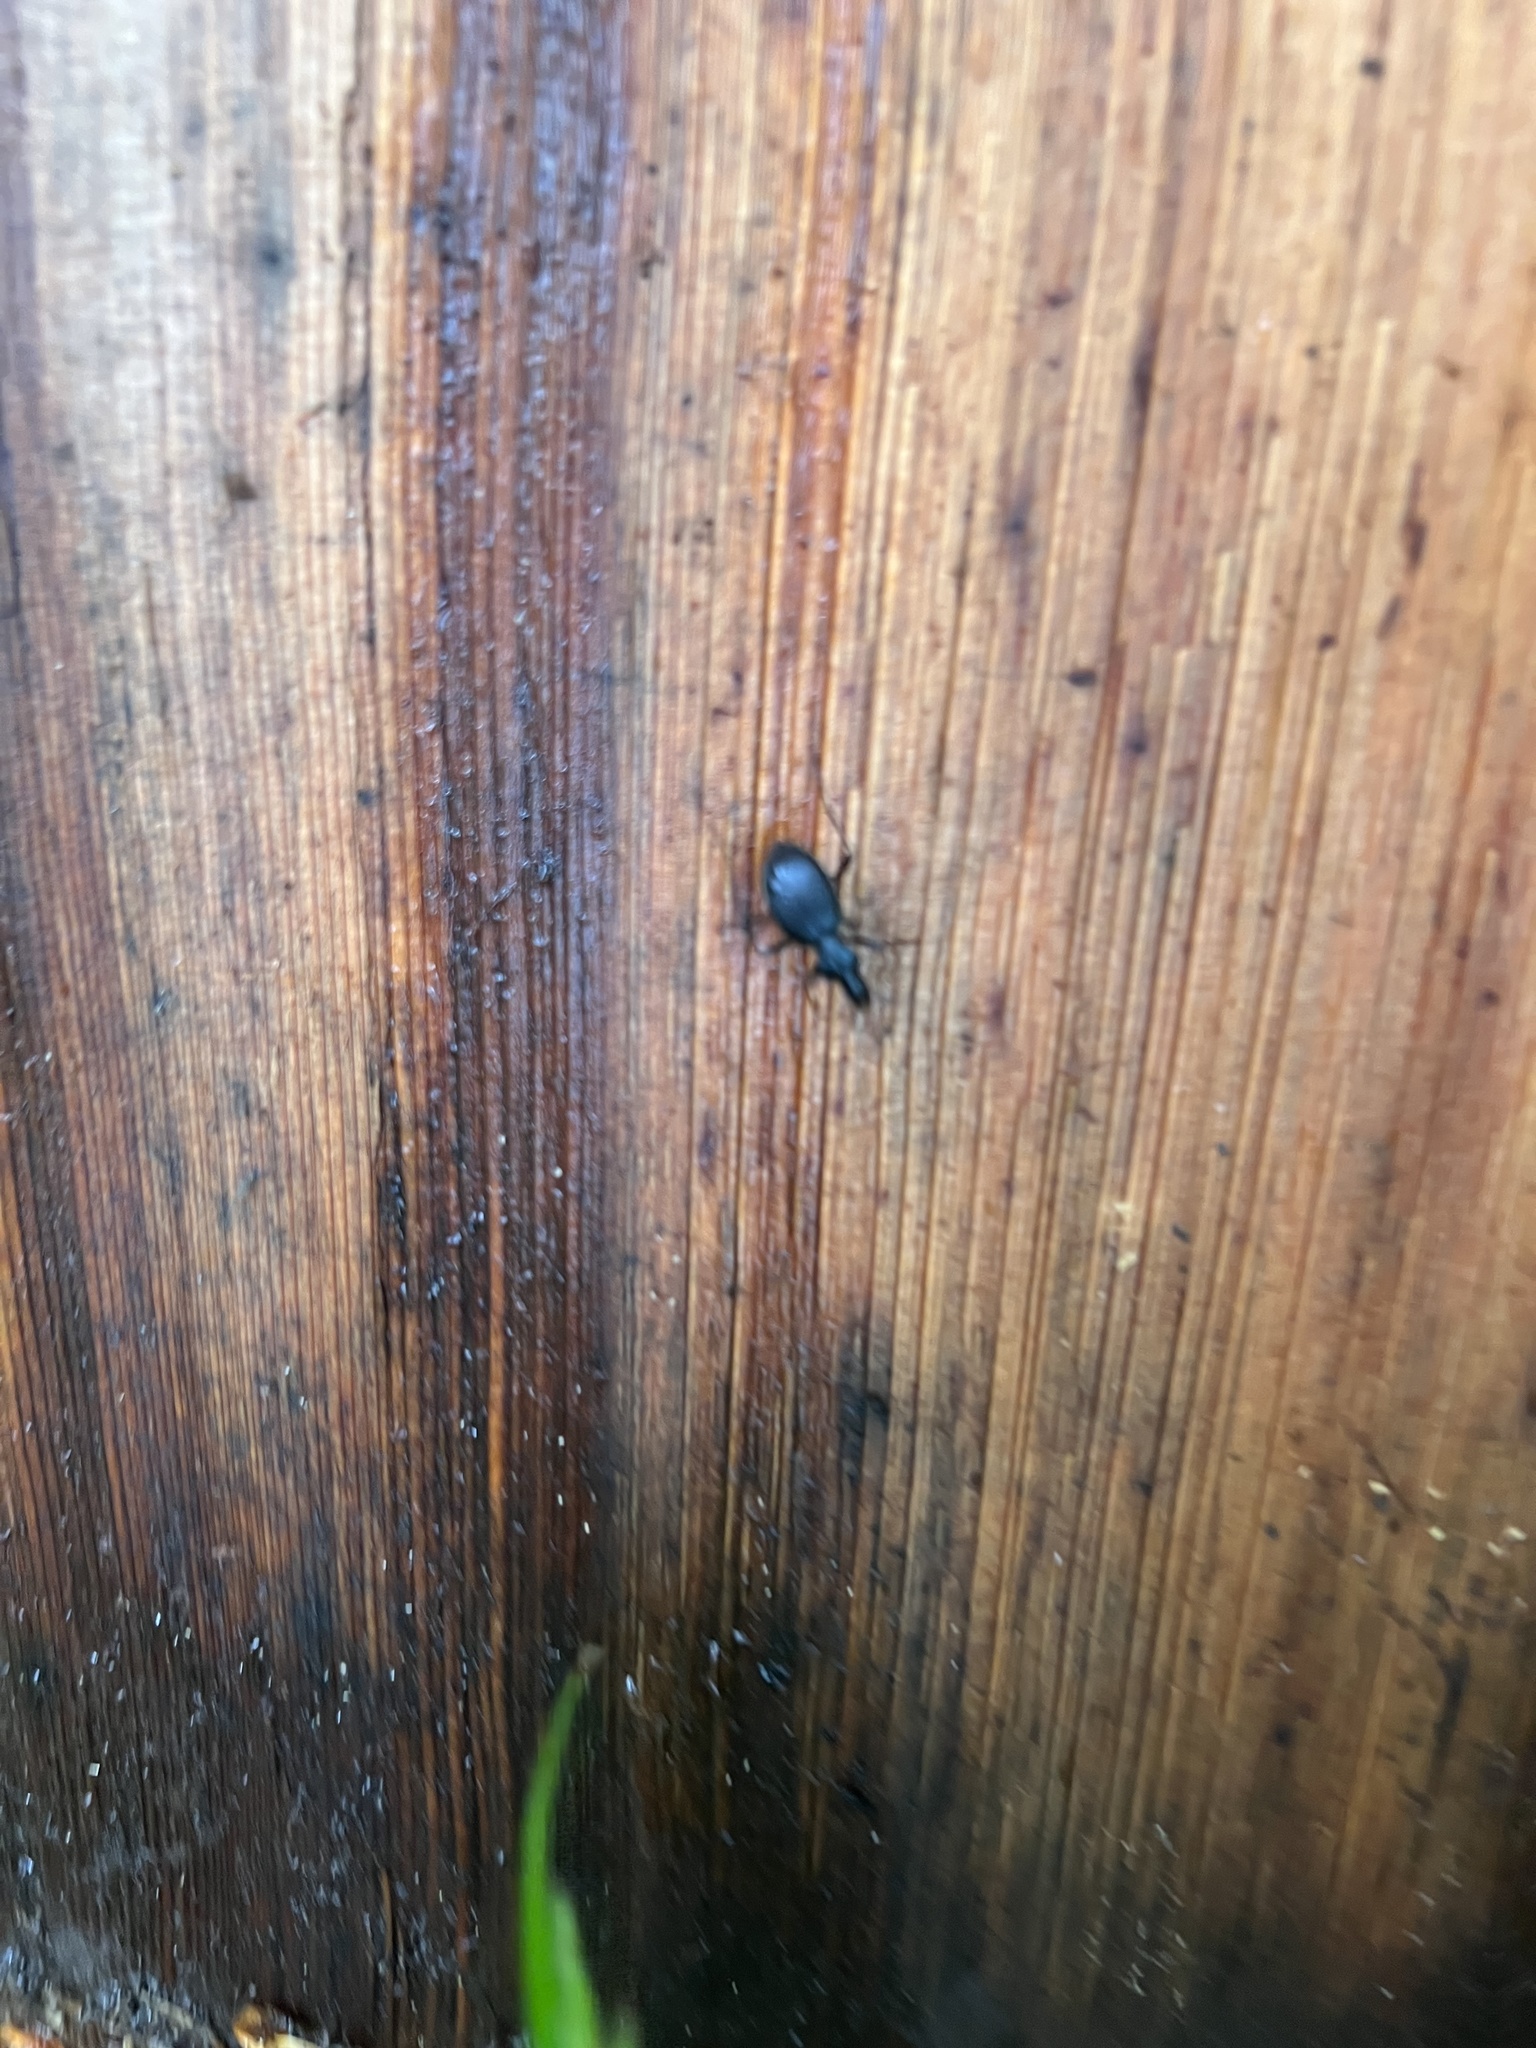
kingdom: Animalia
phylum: Arthropoda
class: Insecta
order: Coleoptera
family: Carabidae
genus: Scaphinotus
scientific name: Scaphinotus marginatus
